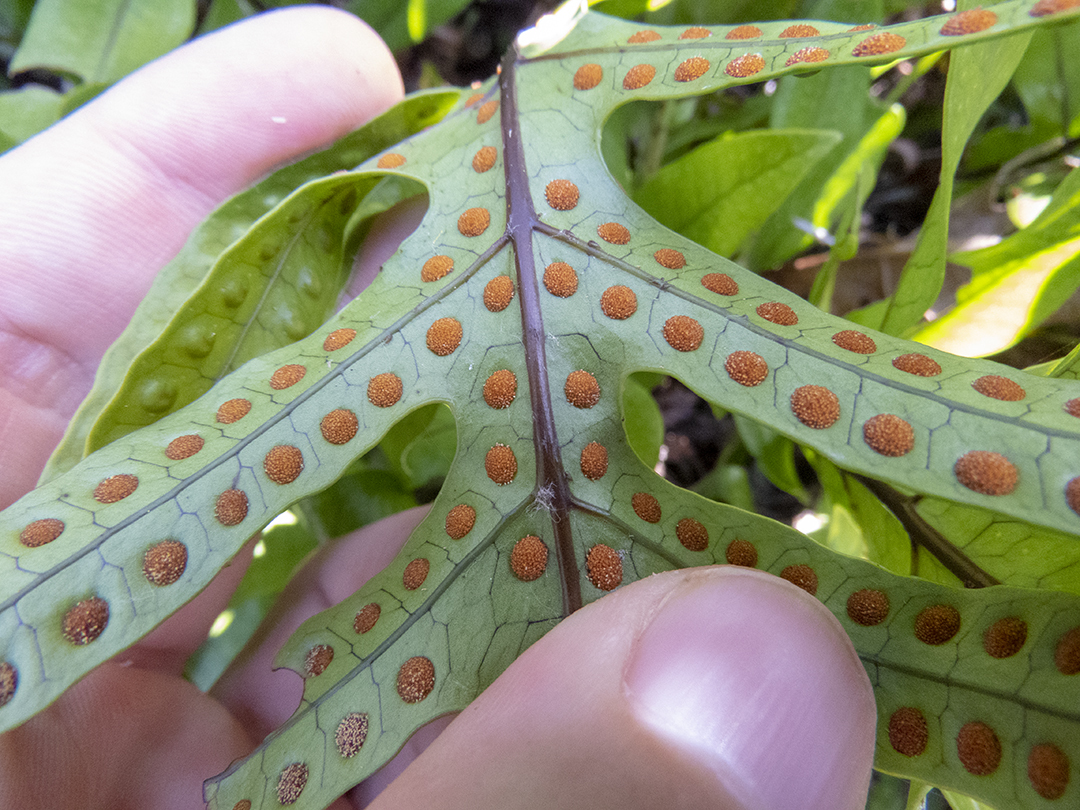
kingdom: Plantae
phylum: Tracheophyta
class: Polypodiopsida
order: Polypodiales
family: Polypodiaceae
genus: Lecanopteris
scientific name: Lecanopteris pustulata
